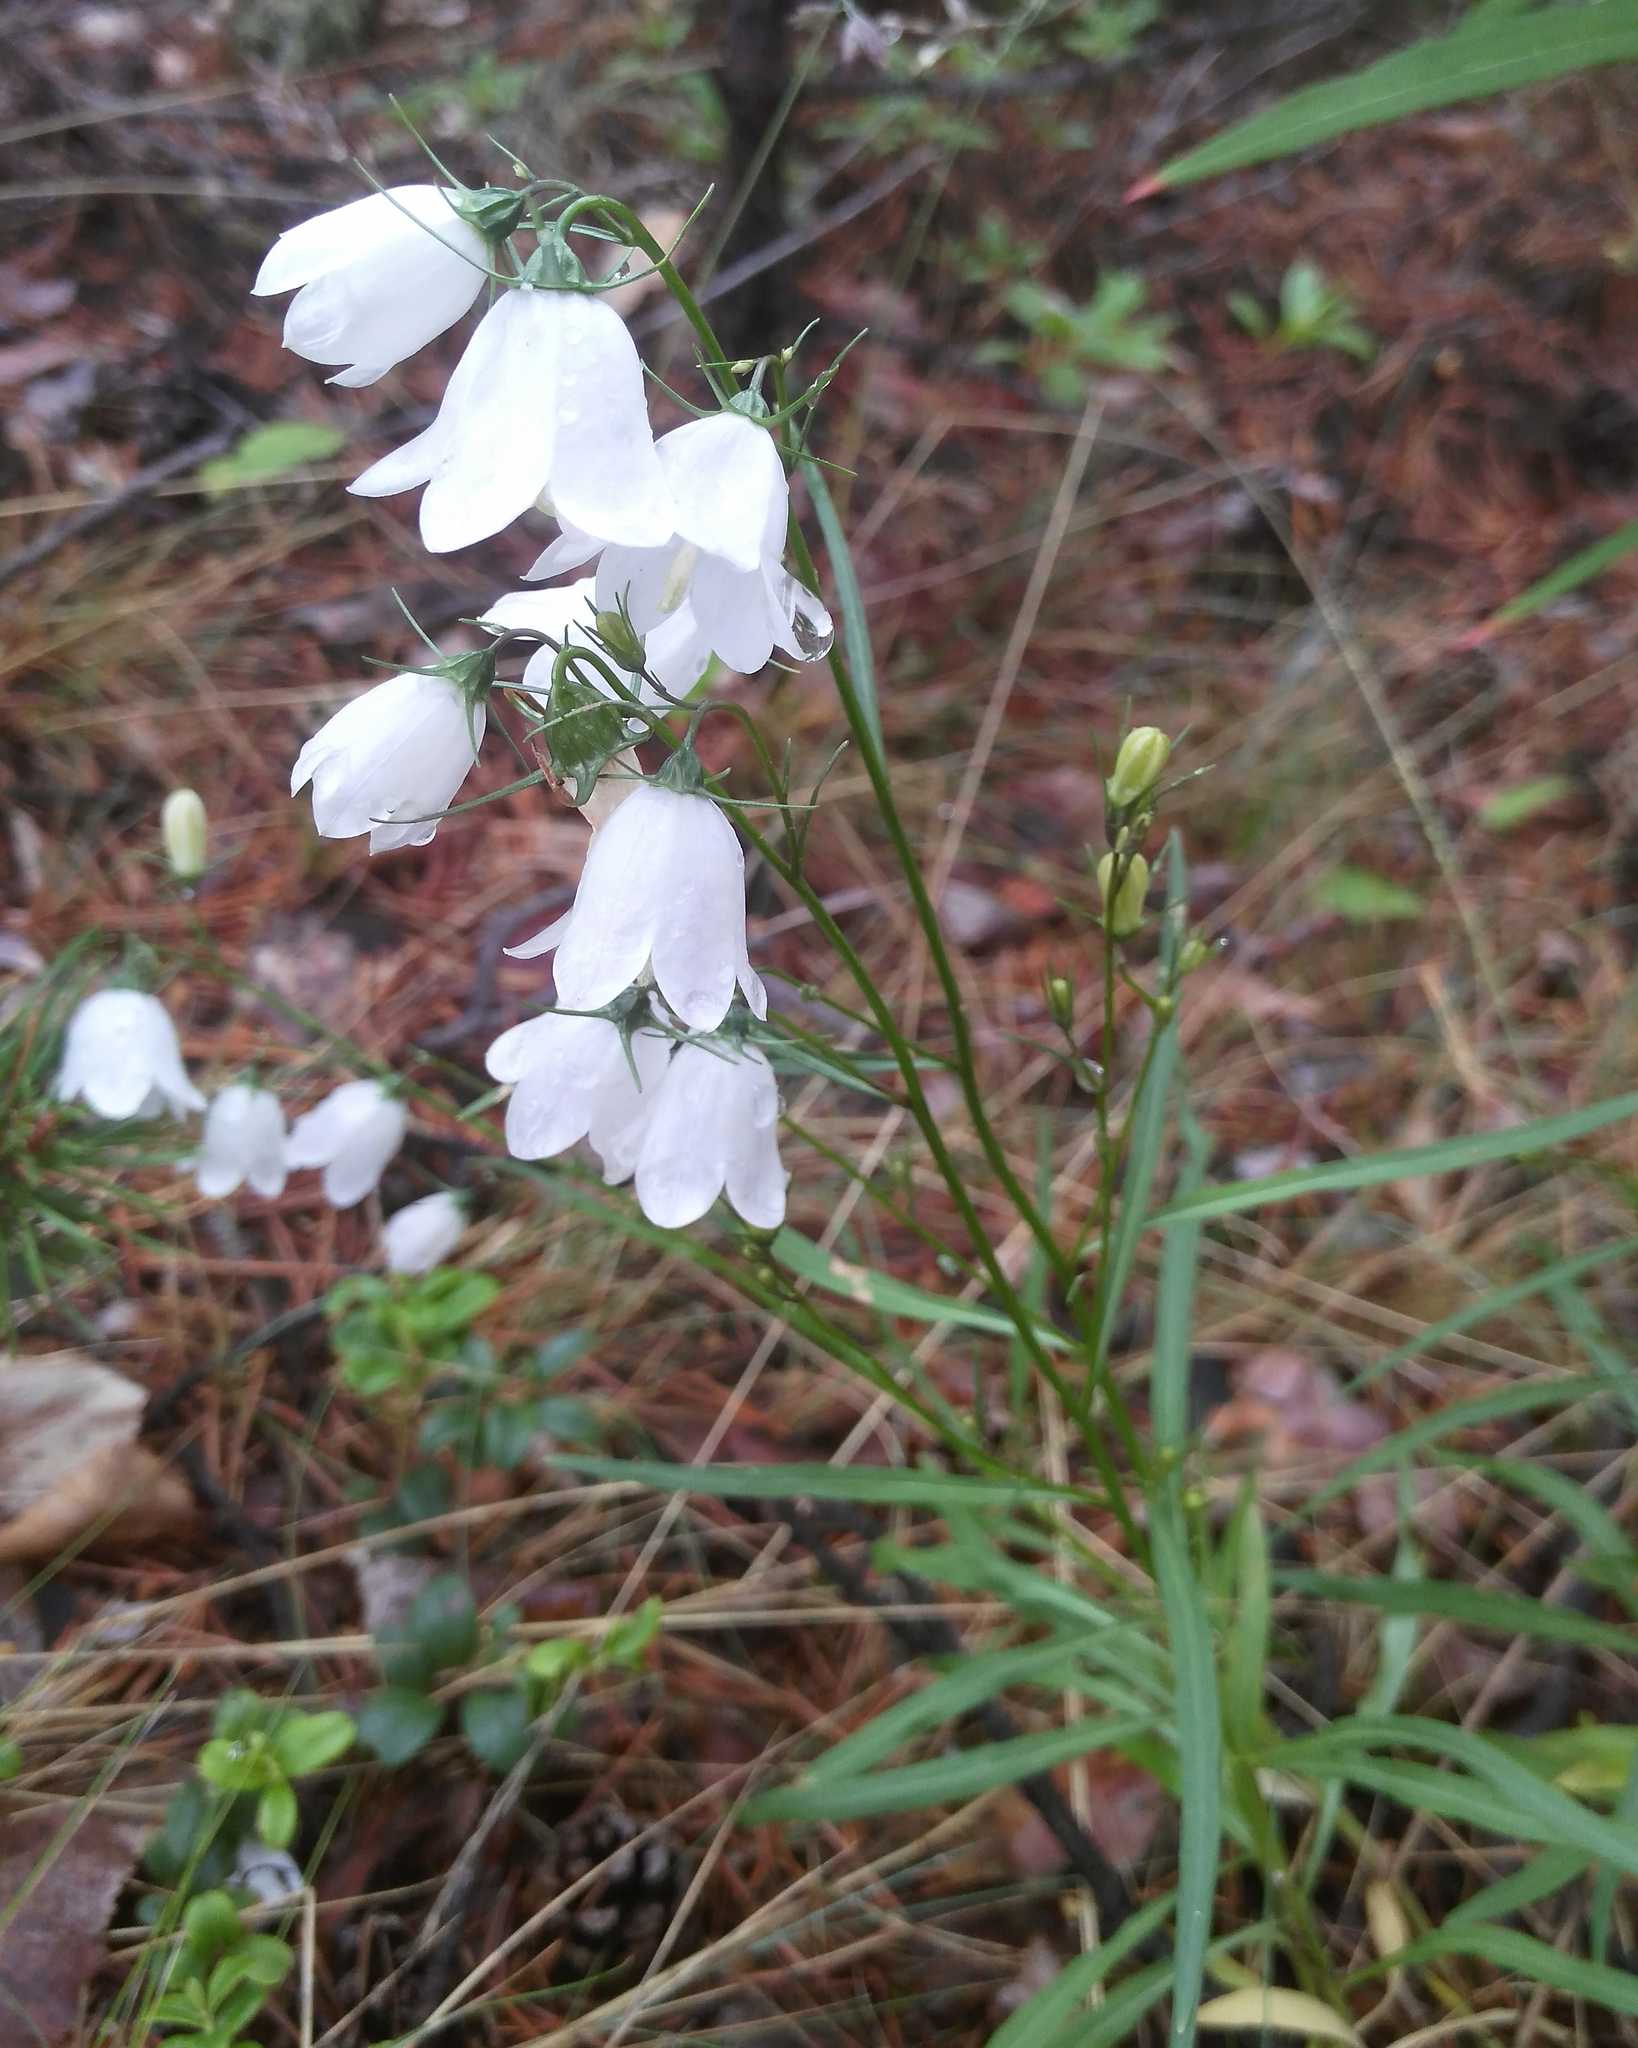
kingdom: Plantae
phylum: Tracheophyta
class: Magnoliopsida
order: Asterales
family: Campanulaceae
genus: Campanula
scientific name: Campanula rotundifolia
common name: Harebell
